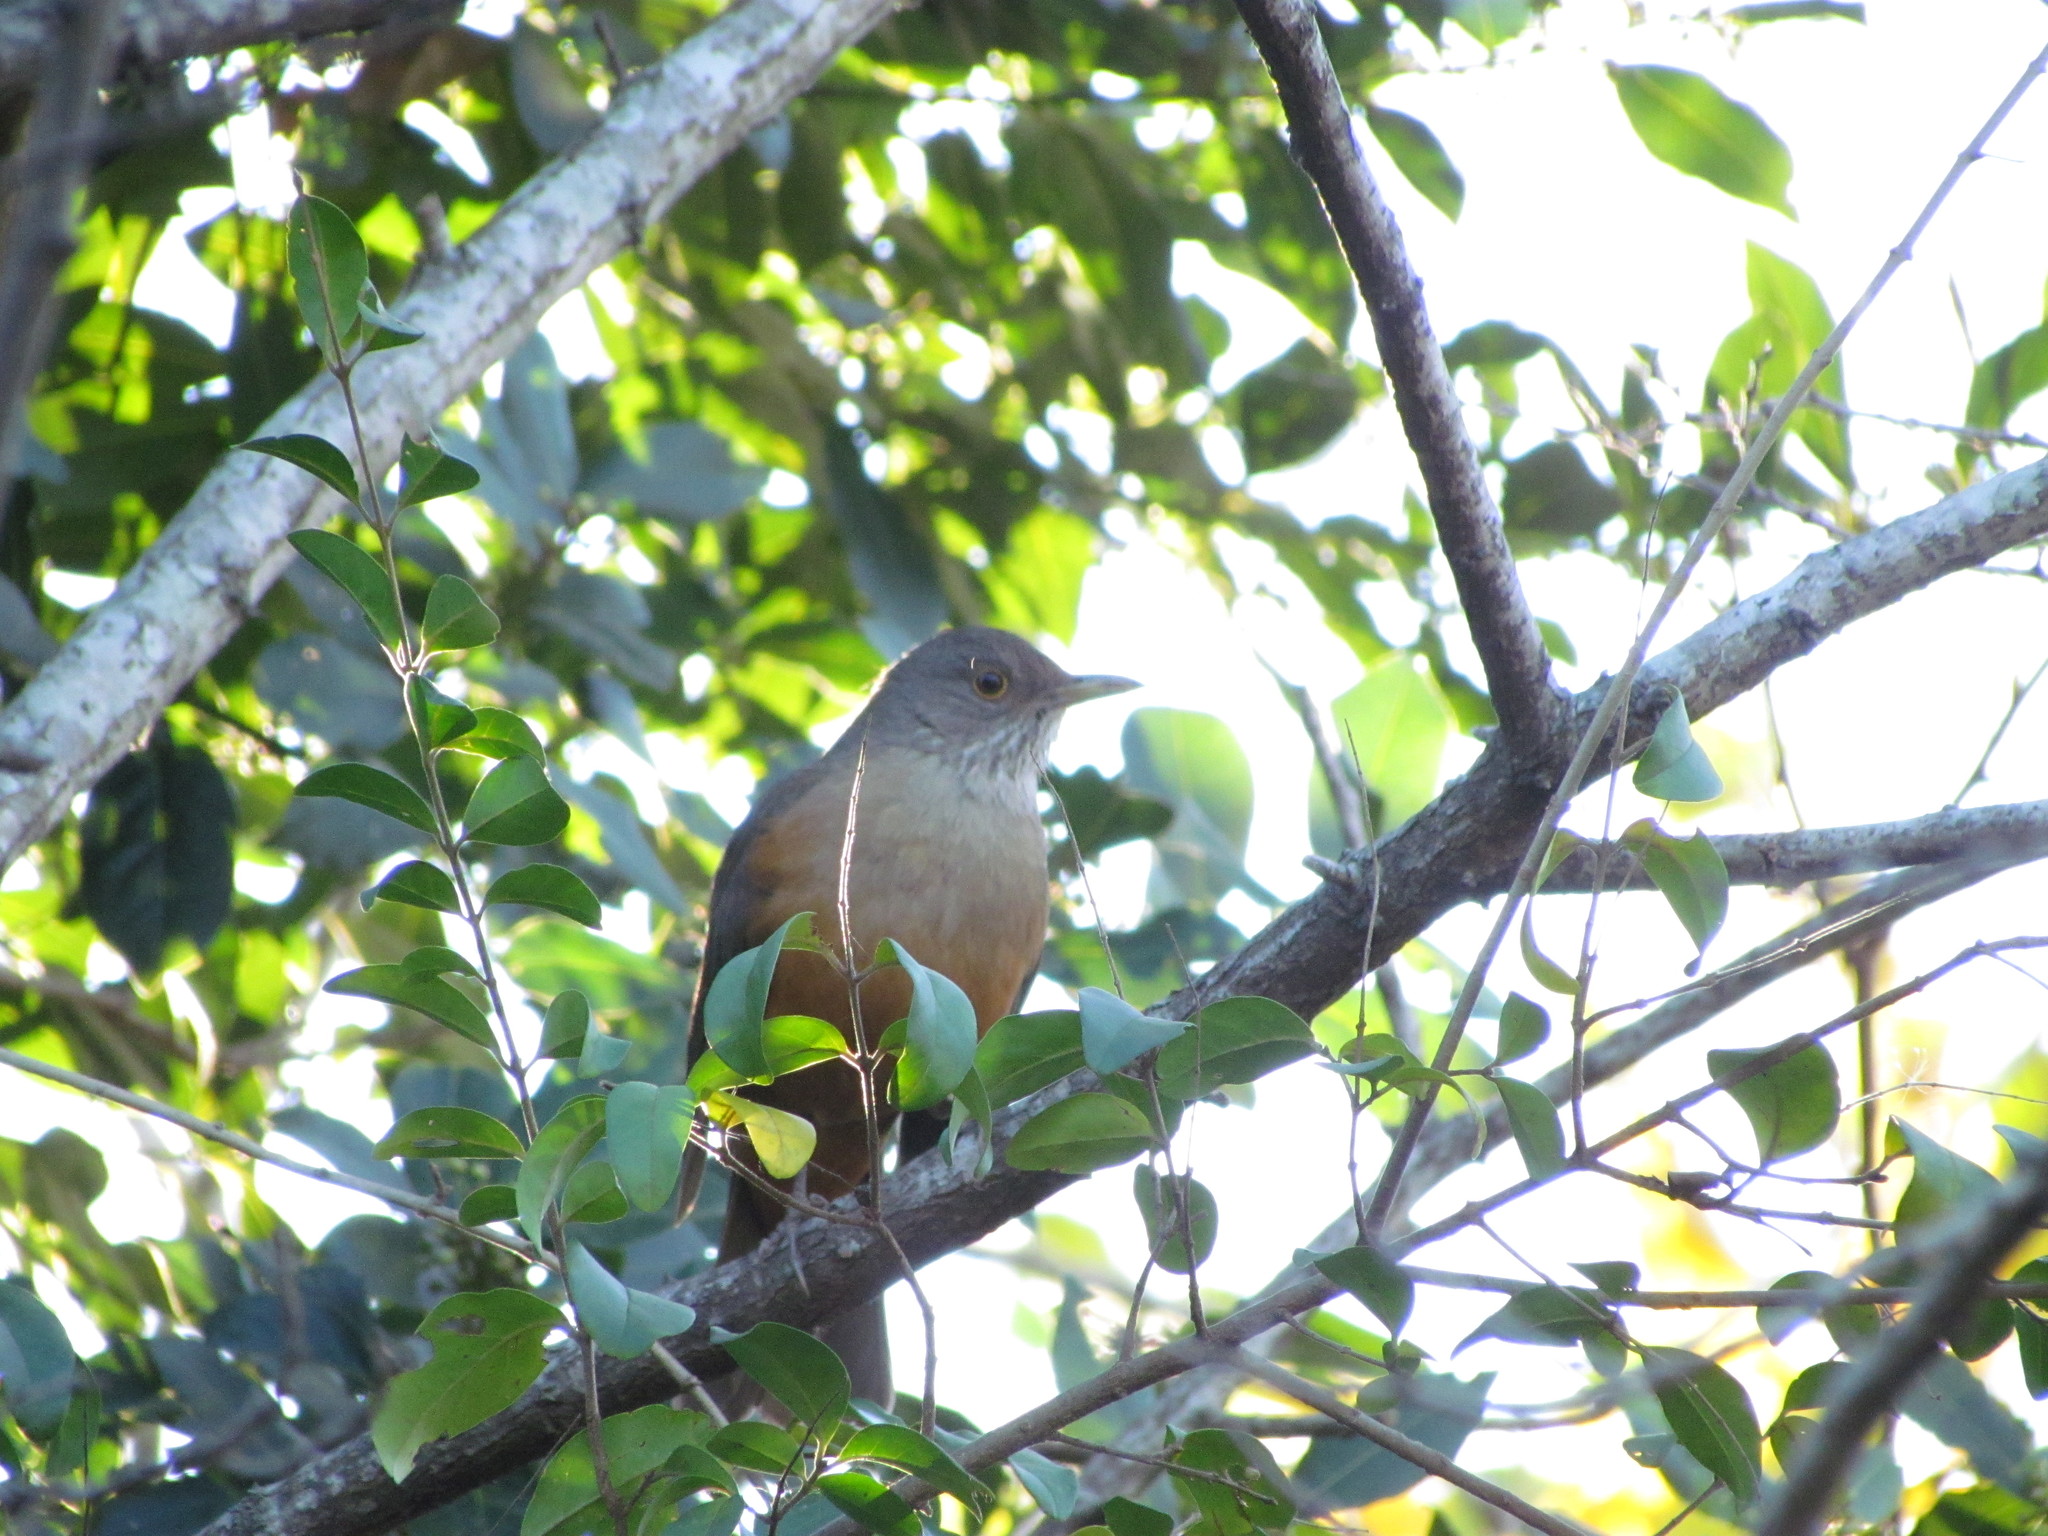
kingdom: Animalia
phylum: Chordata
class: Aves
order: Passeriformes
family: Turdidae
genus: Turdus
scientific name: Turdus rufiventris
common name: Rufous-bellied thrush
